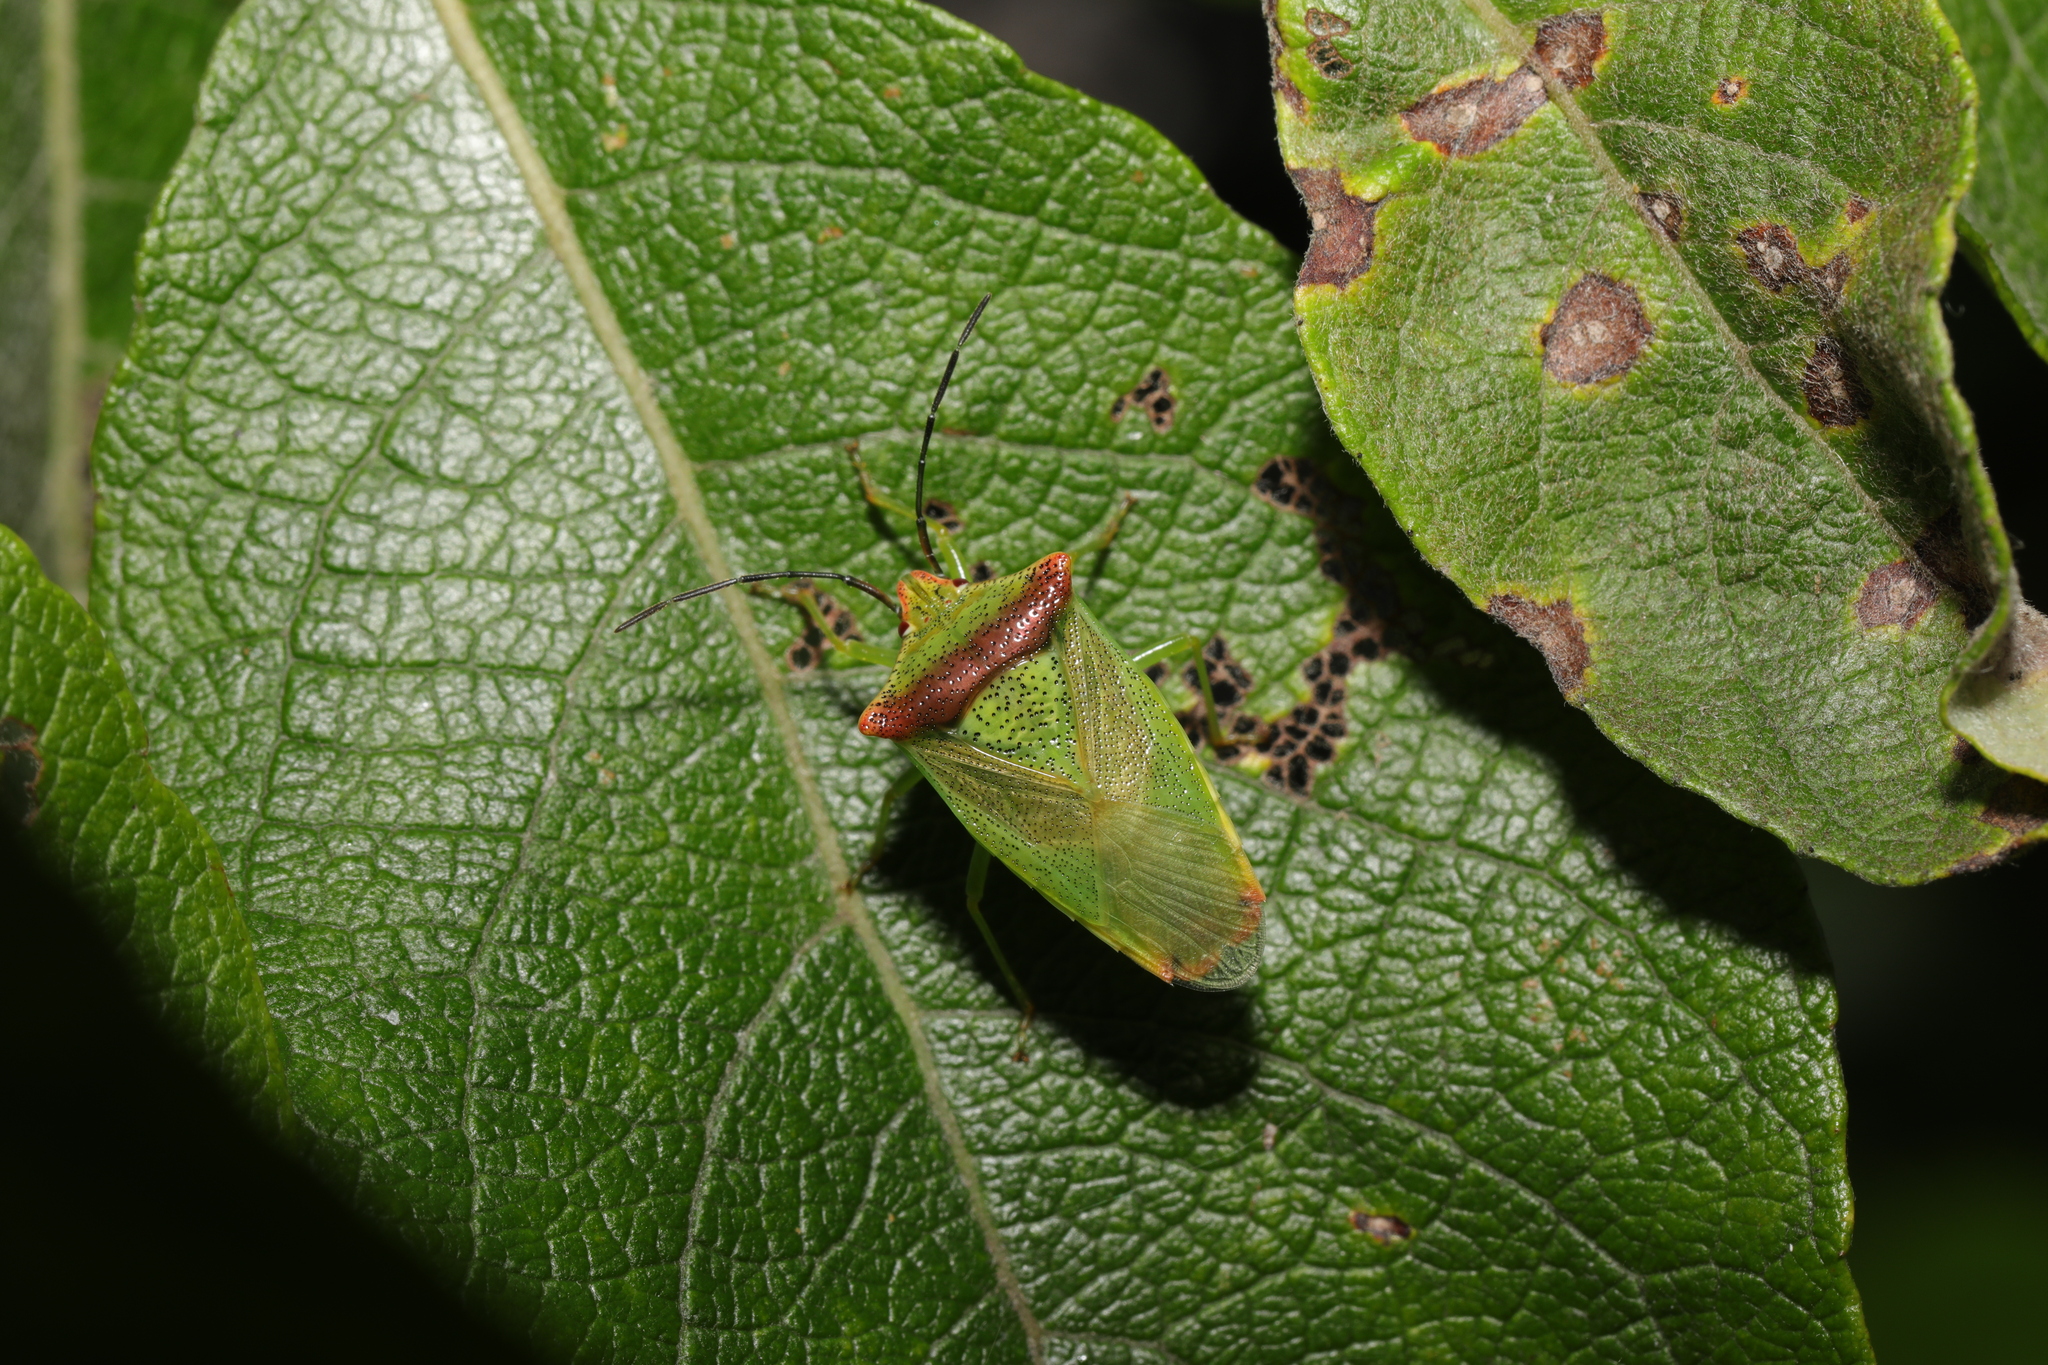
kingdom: Animalia
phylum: Arthropoda
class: Insecta
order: Hemiptera
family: Acanthosomatidae
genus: Acanthosoma
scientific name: Acanthosoma haemorrhoidale
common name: Hawthorn shieldbug
